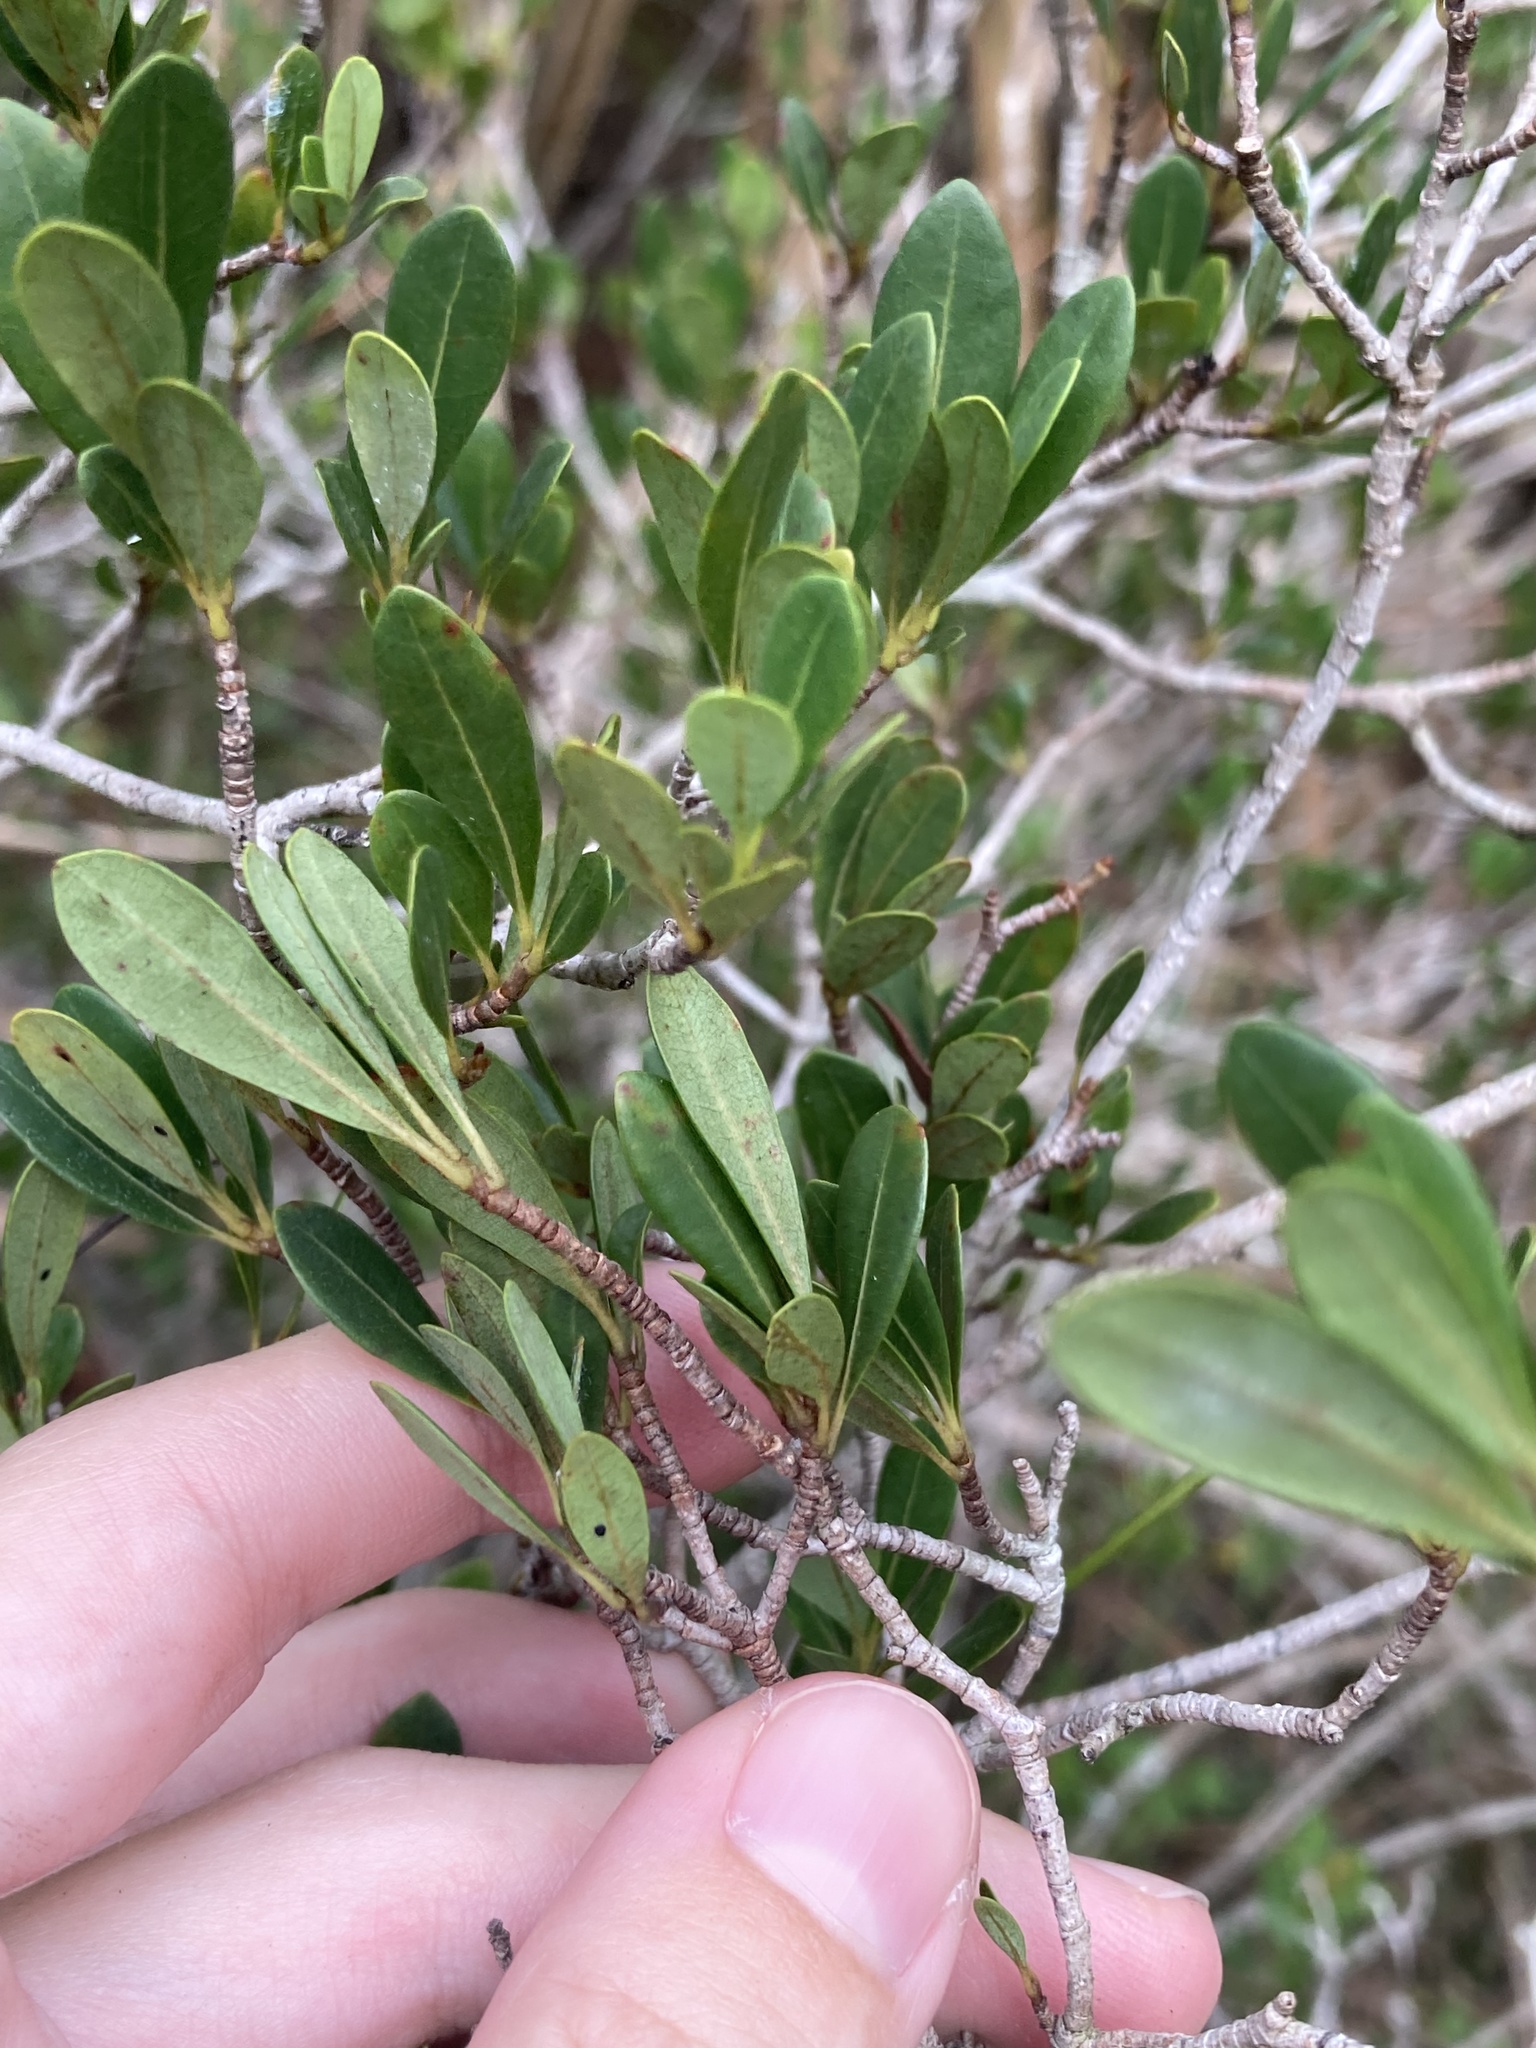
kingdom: Plantae
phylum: Tracheophyta
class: Magnoliopsida
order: Malpighiales
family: Malpighiaceae
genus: Byrsonima
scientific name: Byrsonima lucida
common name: Clam-cherry
